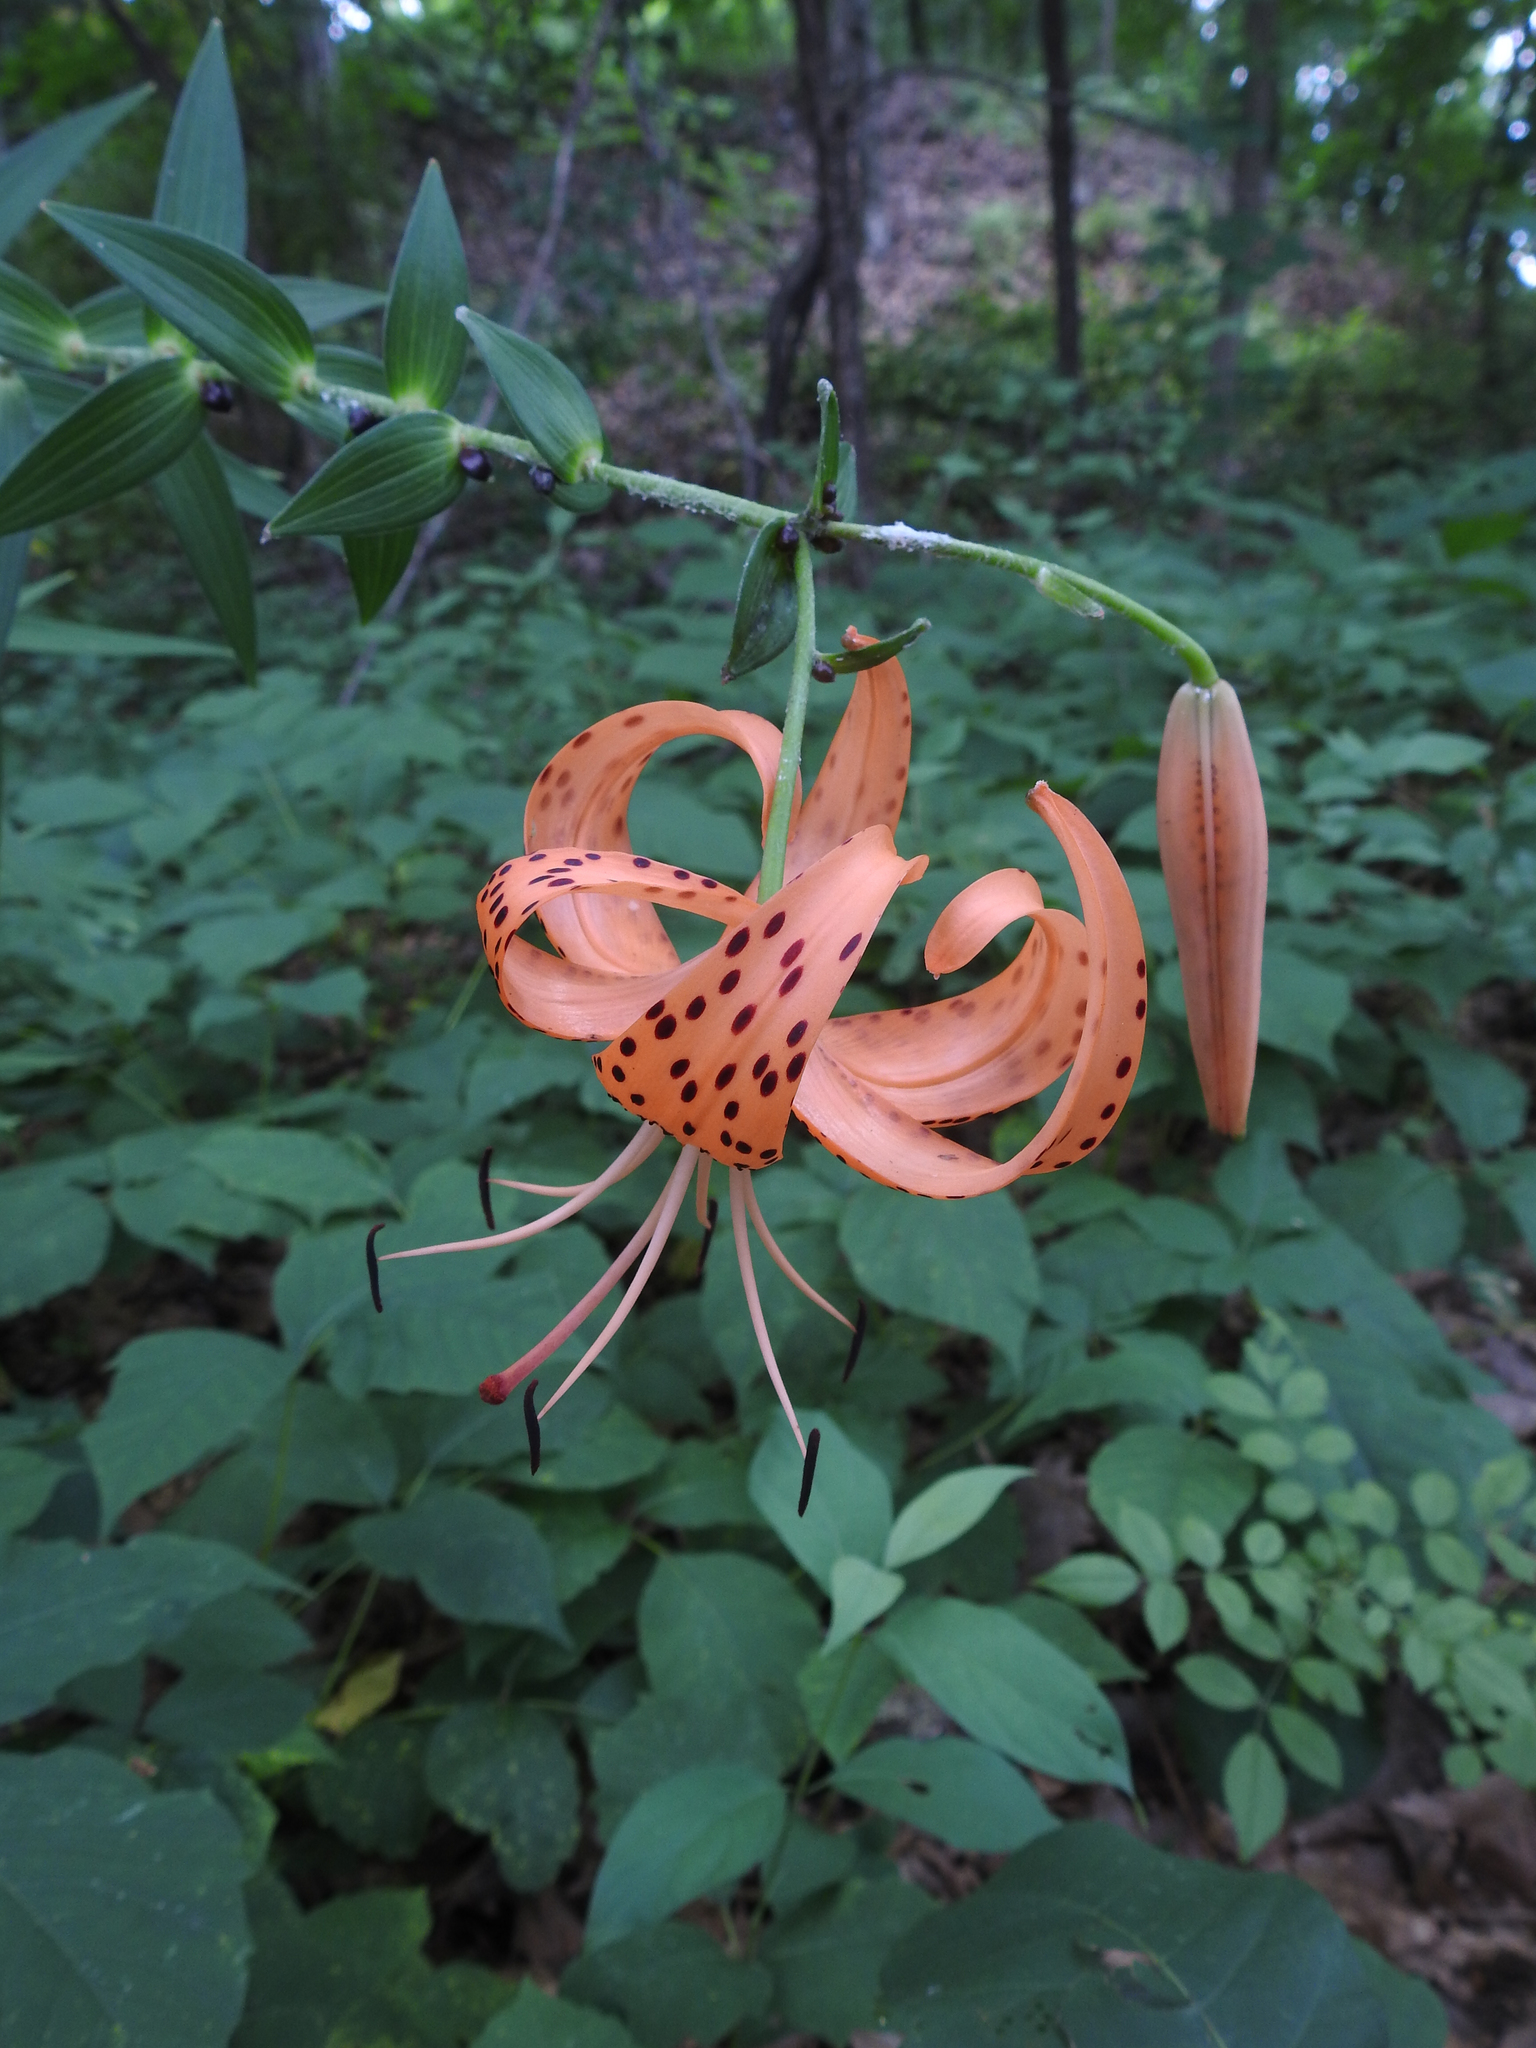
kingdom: Plantae
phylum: Tracheophyta
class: Liliopsida
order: Liliales
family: Liliaceae
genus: Lilium
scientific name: Lilium lancifolium
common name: Tiger lily
